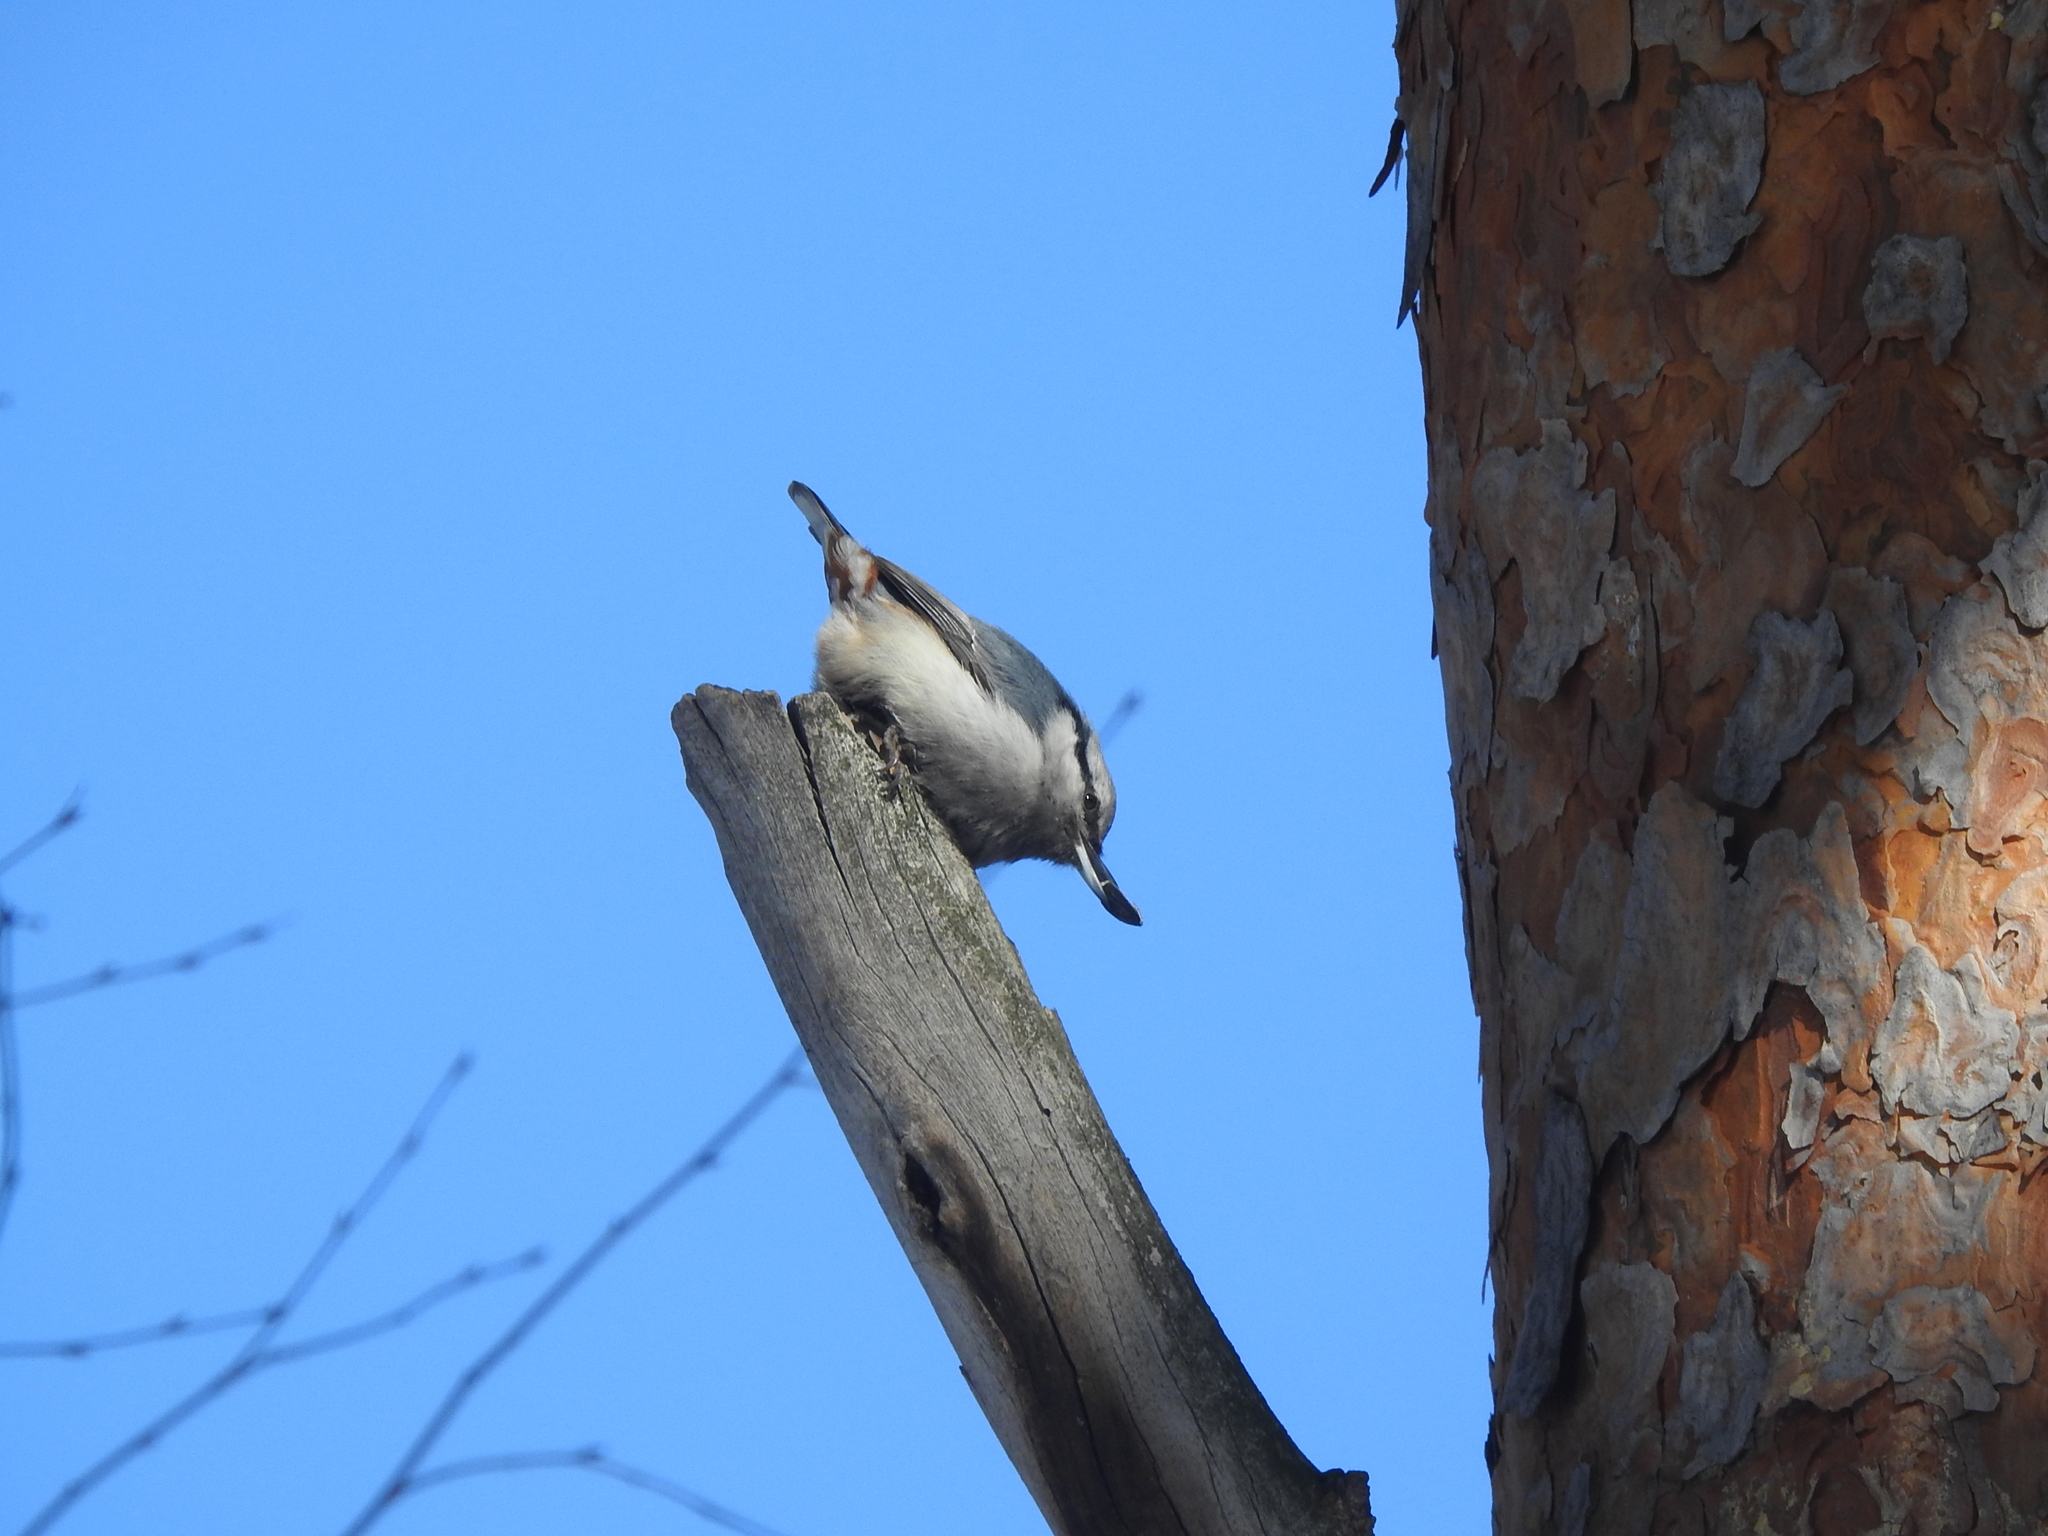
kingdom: Animalia
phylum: Chordata
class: Aves
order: Passeriformes
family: Sittidae
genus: Sitta
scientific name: Sitta europaea
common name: Eurasian nuthatch
